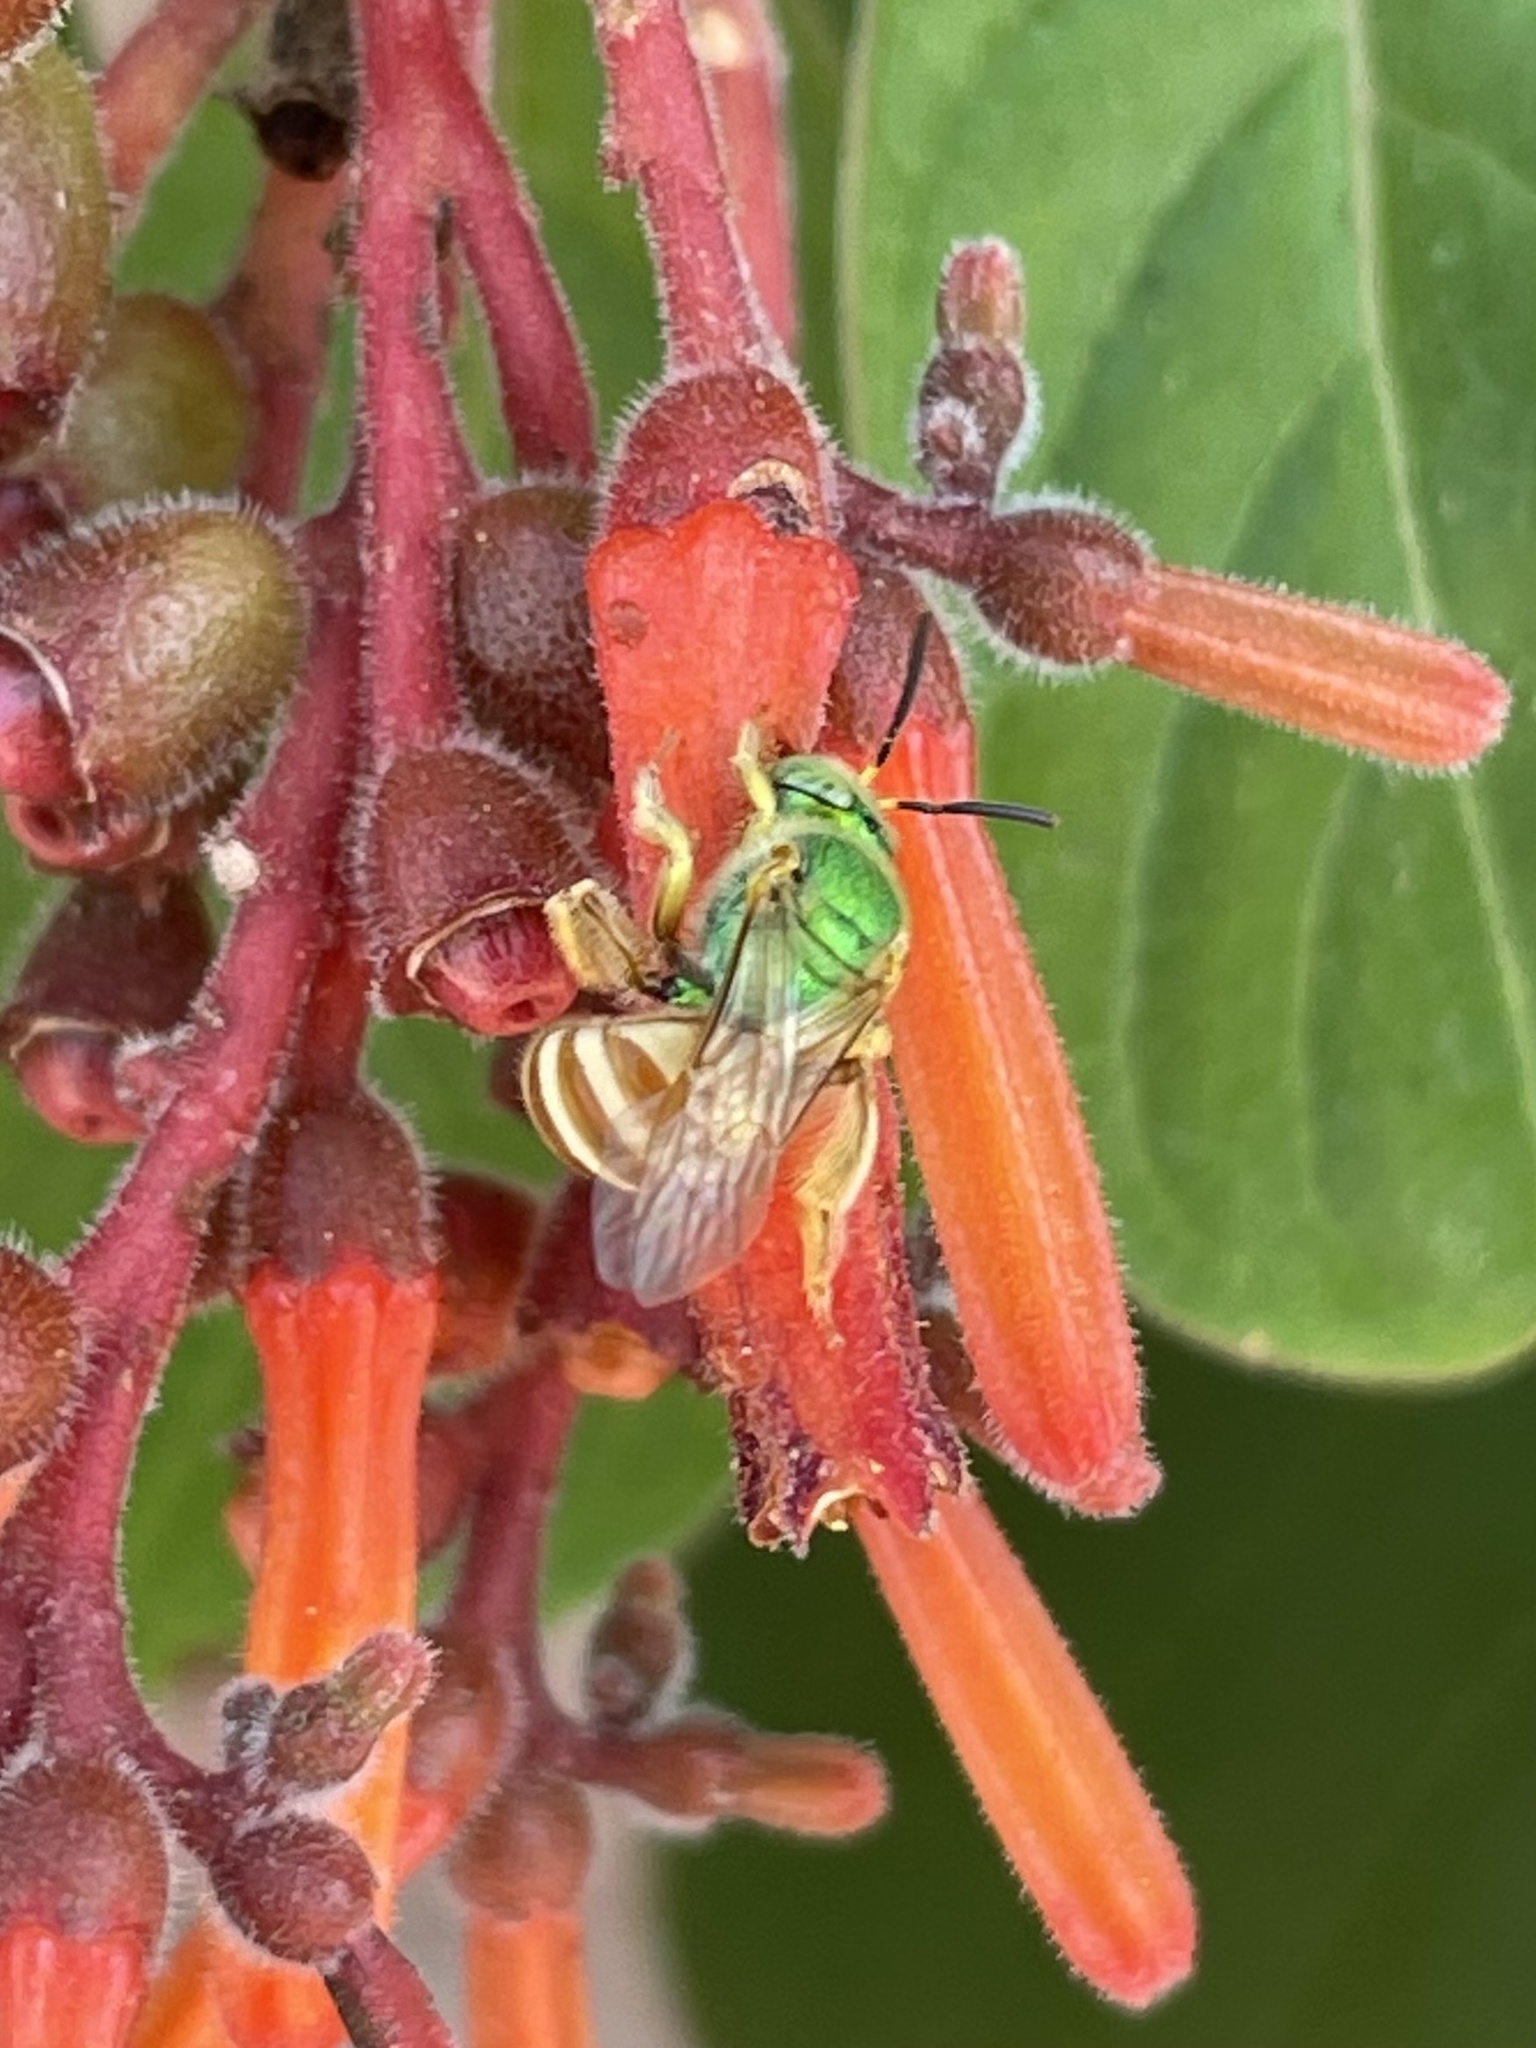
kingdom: Animalia
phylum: Arthropoda
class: Insecta
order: Hymenoptera
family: Halictidae
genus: Agapostemon
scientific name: Agapostemon melliventris
